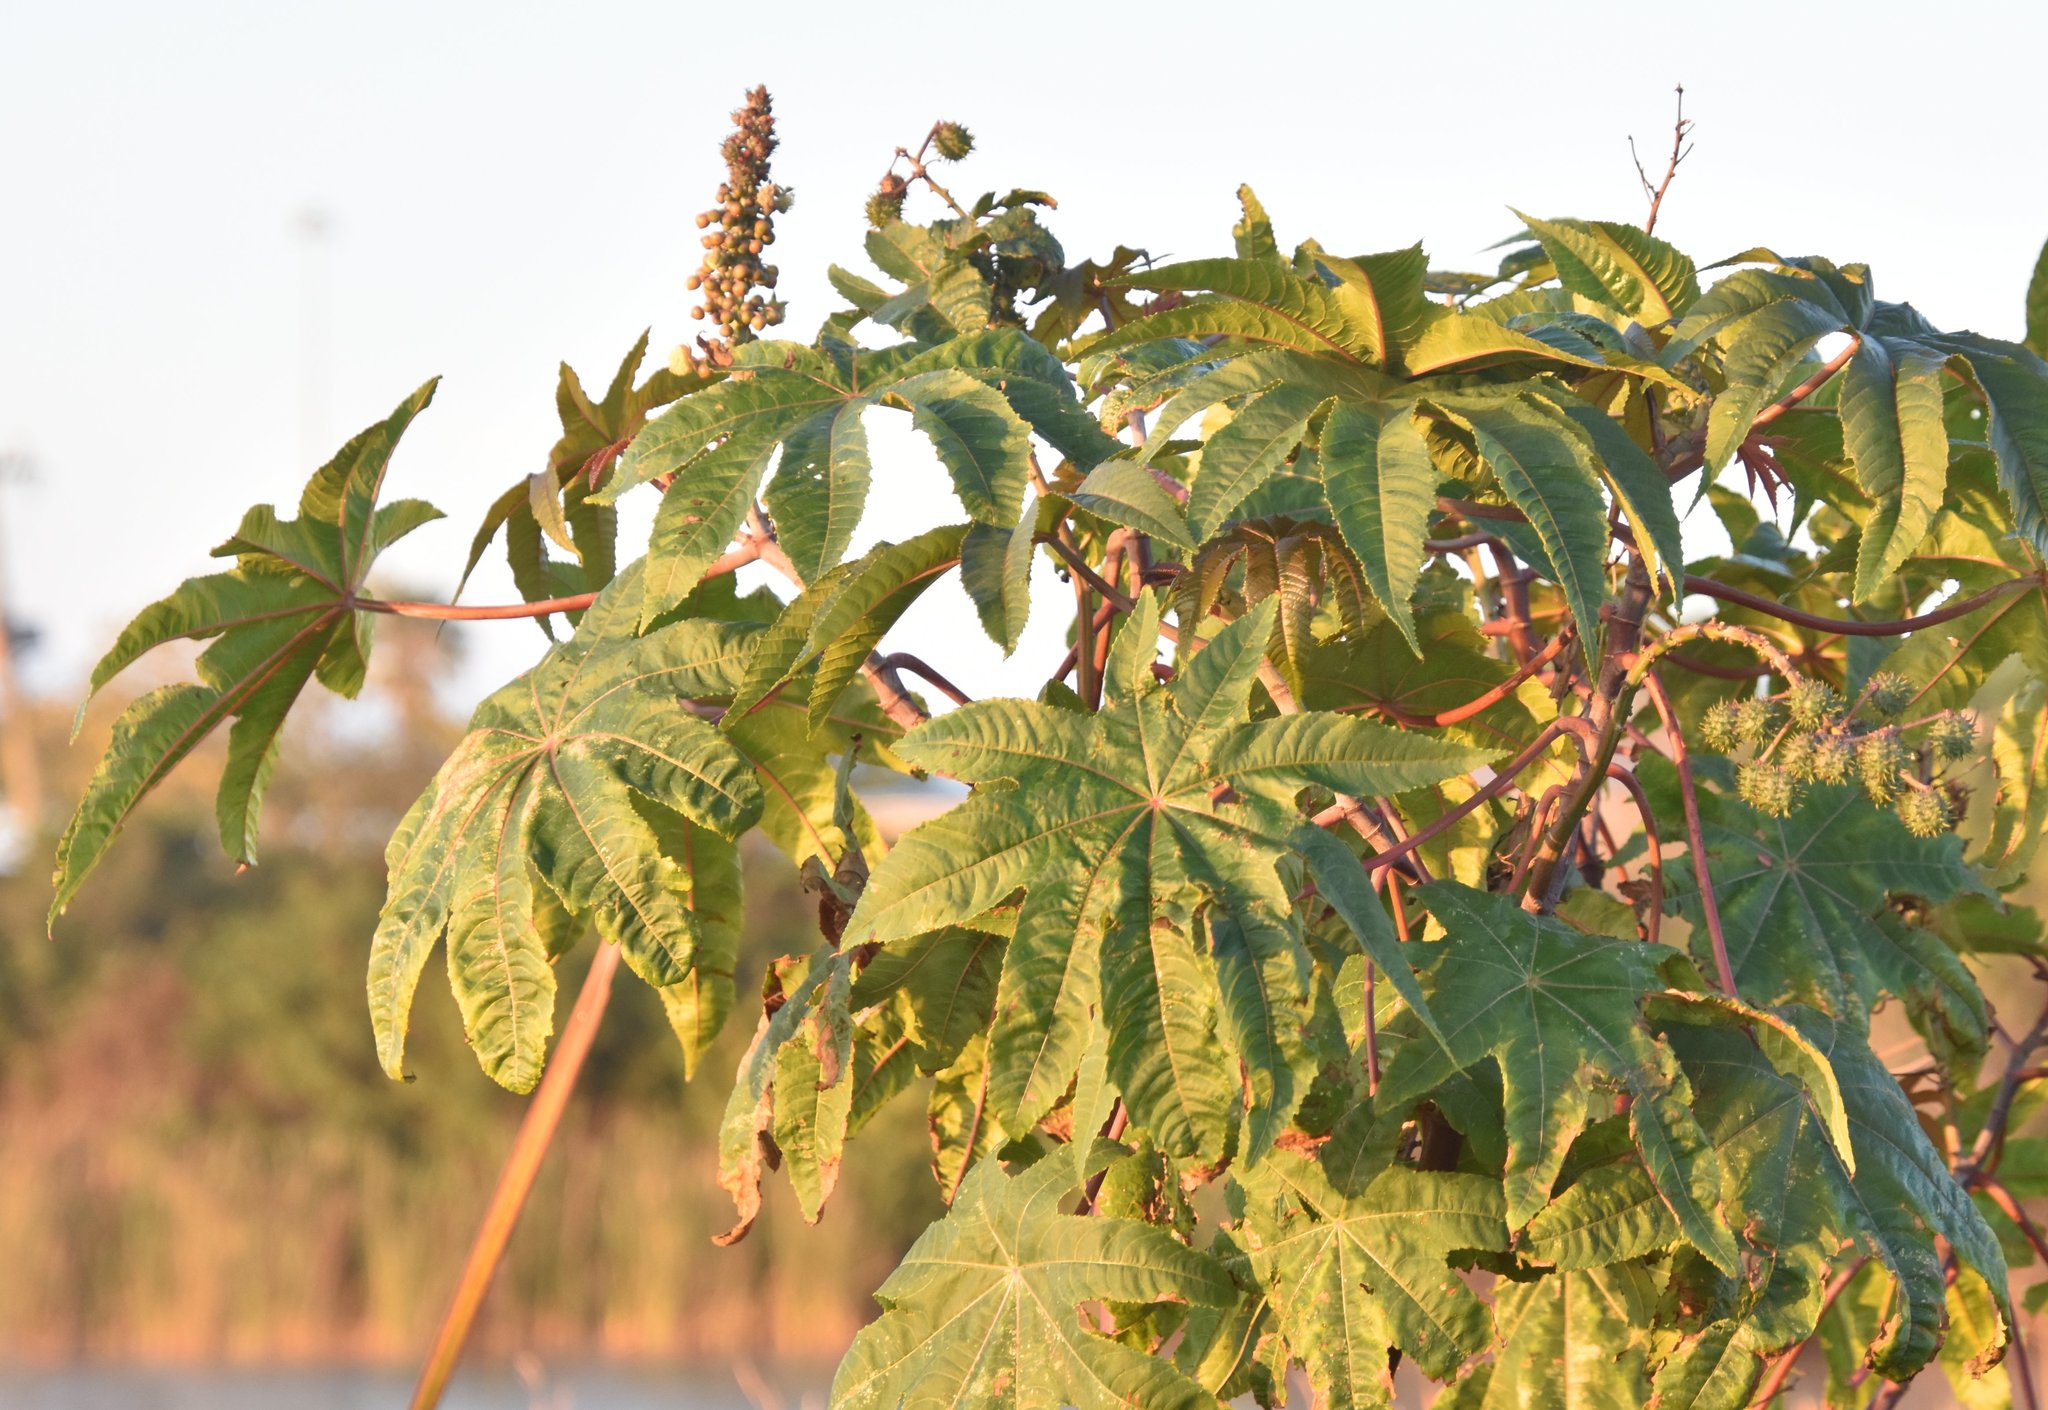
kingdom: Plantae
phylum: Tracheophyta
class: Magnoliopsida
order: Malpighiales
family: Euphorbiaceae
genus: Ricinus
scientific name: Ricinus communis
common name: Castor-oil-plant
